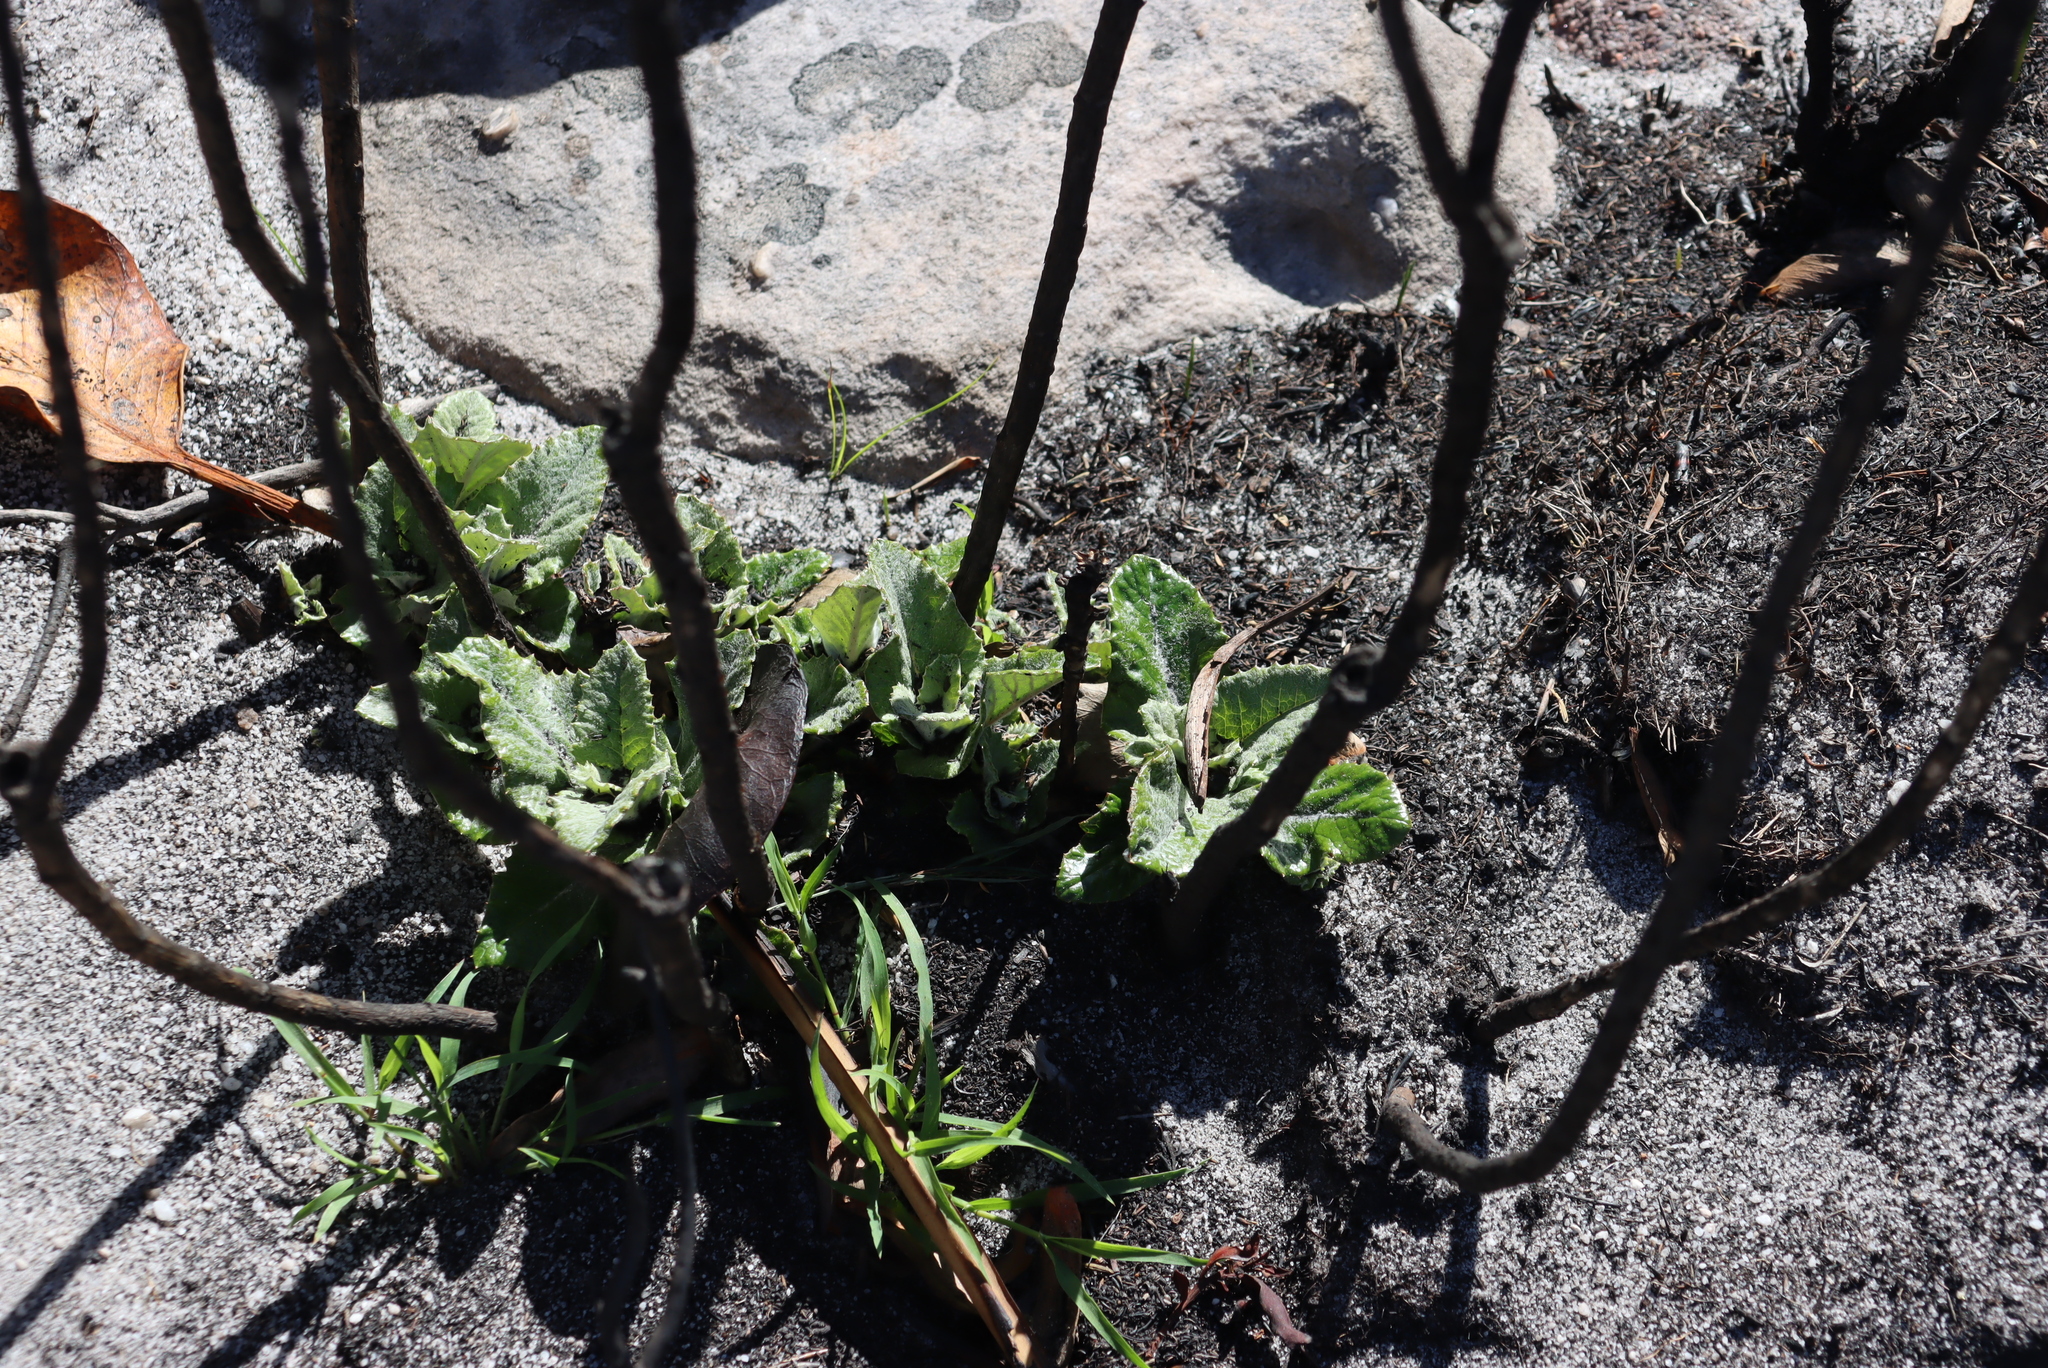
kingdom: Plantae
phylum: Tracheophyta
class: Magnoliopsida
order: Apiales
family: Apiaceae
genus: Hermas
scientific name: Hermas villosa
